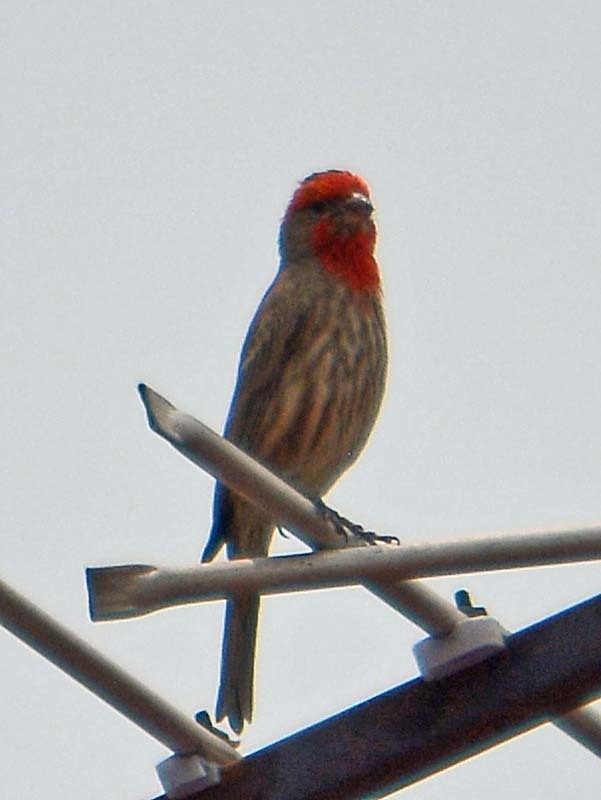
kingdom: Animalia
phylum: Chordata
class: Aves
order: Passeriformes
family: Fringillidae
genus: Haemorhous
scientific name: Haemorhous mexicanus
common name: House finch
